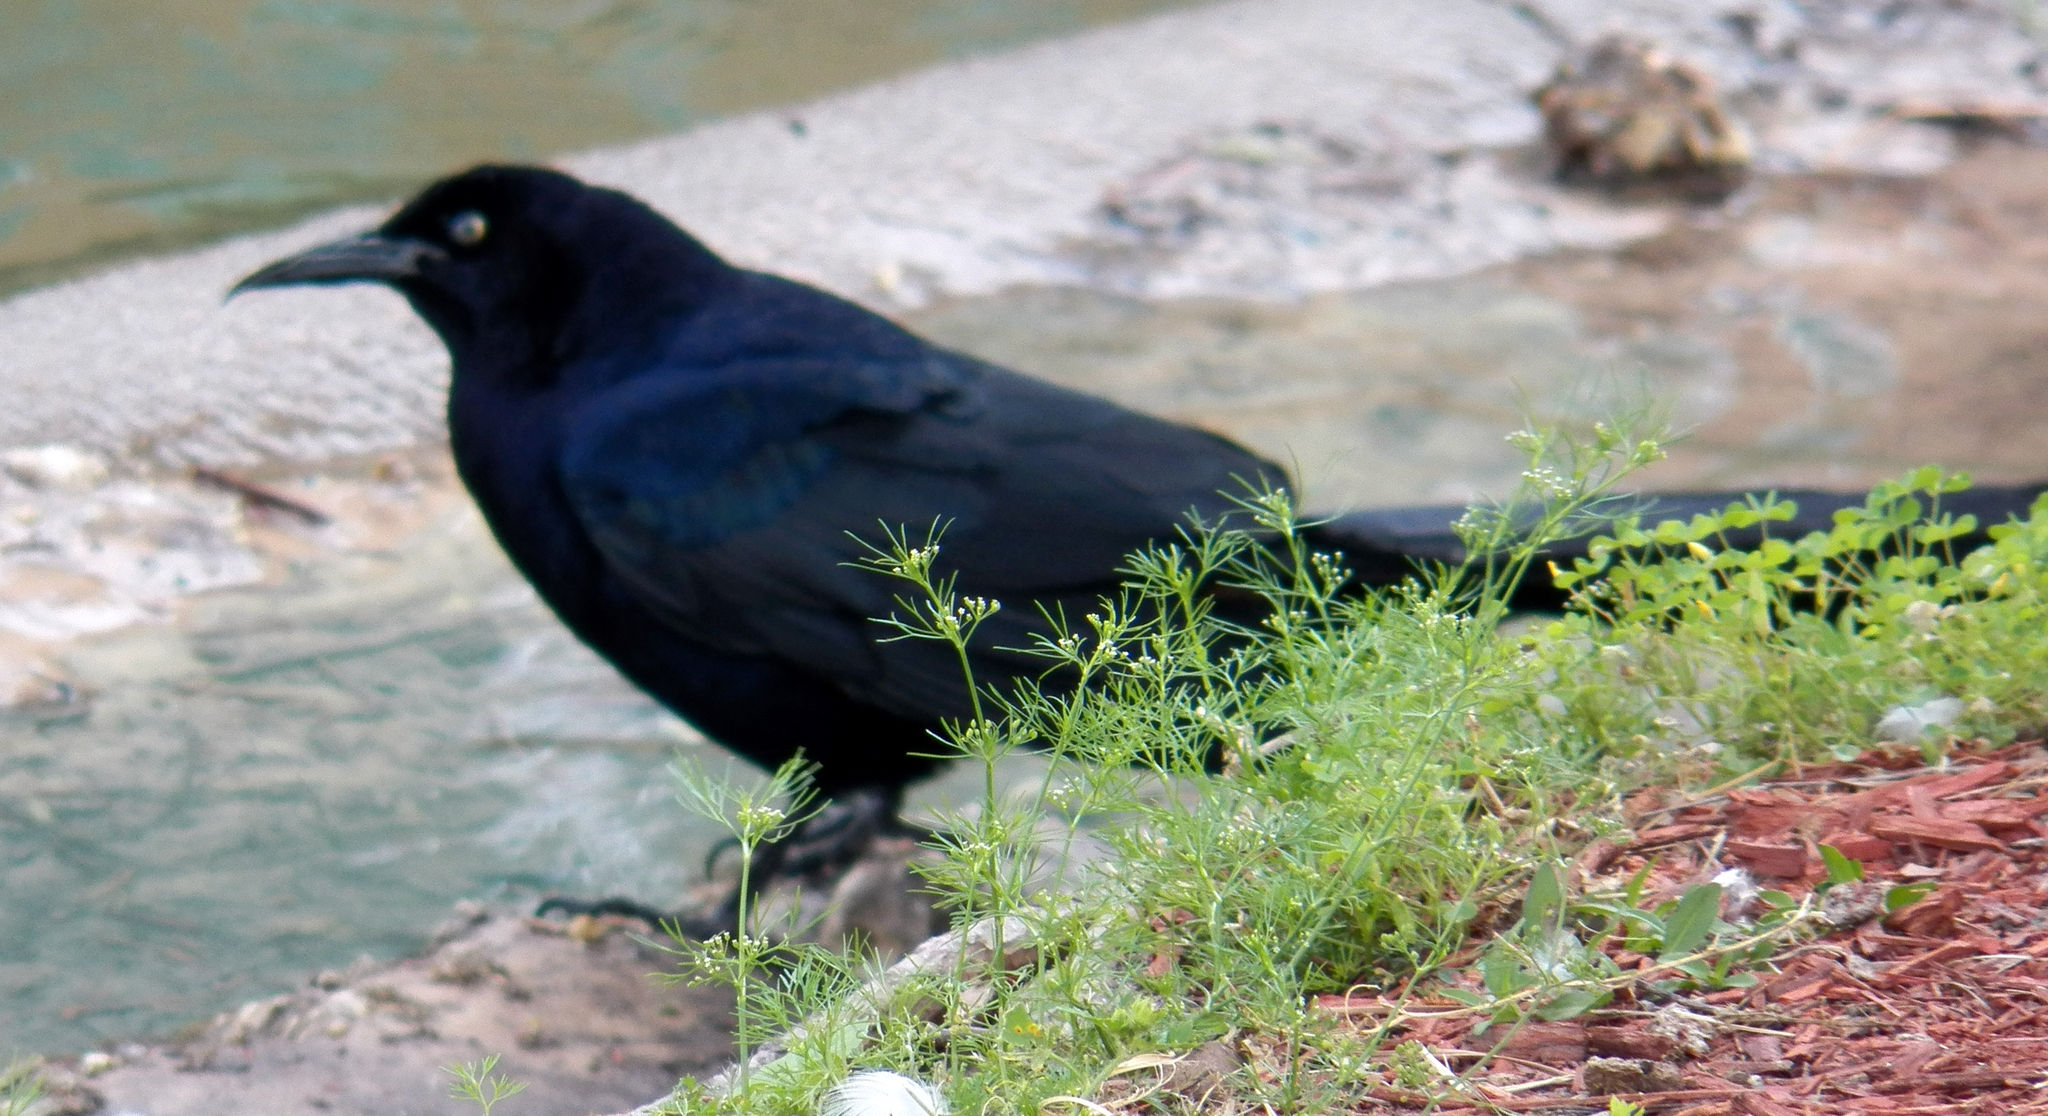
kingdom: Animalia
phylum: Chordata
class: Aves
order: Passeriformes
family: Icteridae
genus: Quiscalus
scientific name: Quiscalus mexicanus
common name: Great-tailed grackle
